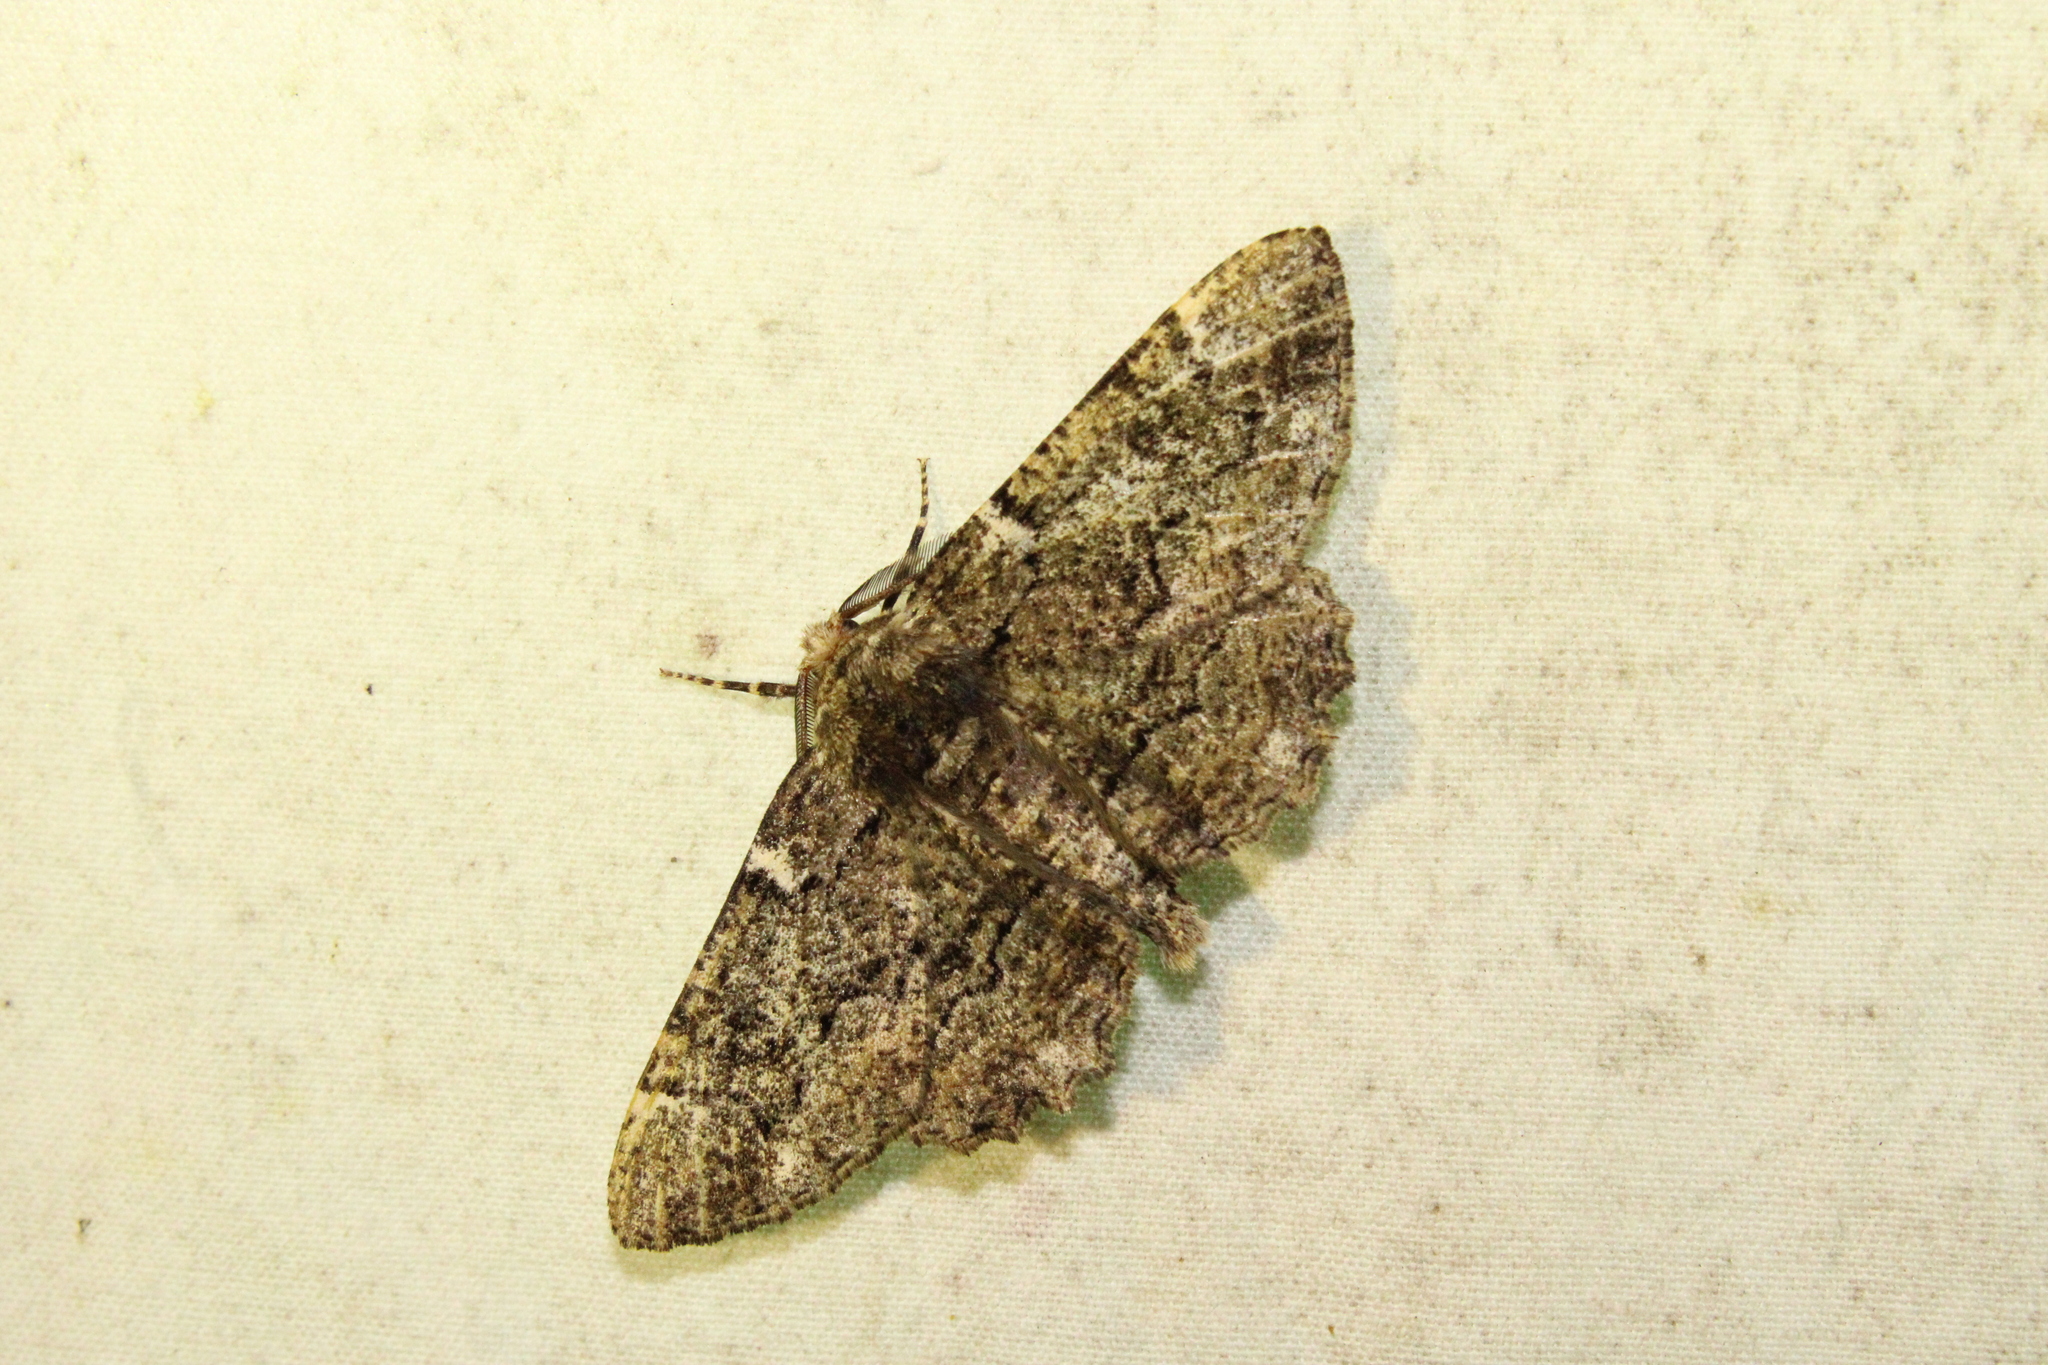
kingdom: Animalia
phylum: Arthropoda
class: Insecta
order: Lepidoptera
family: Geometridae
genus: Phaeoura
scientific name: Phaeoura quernaria
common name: Oak beauty
